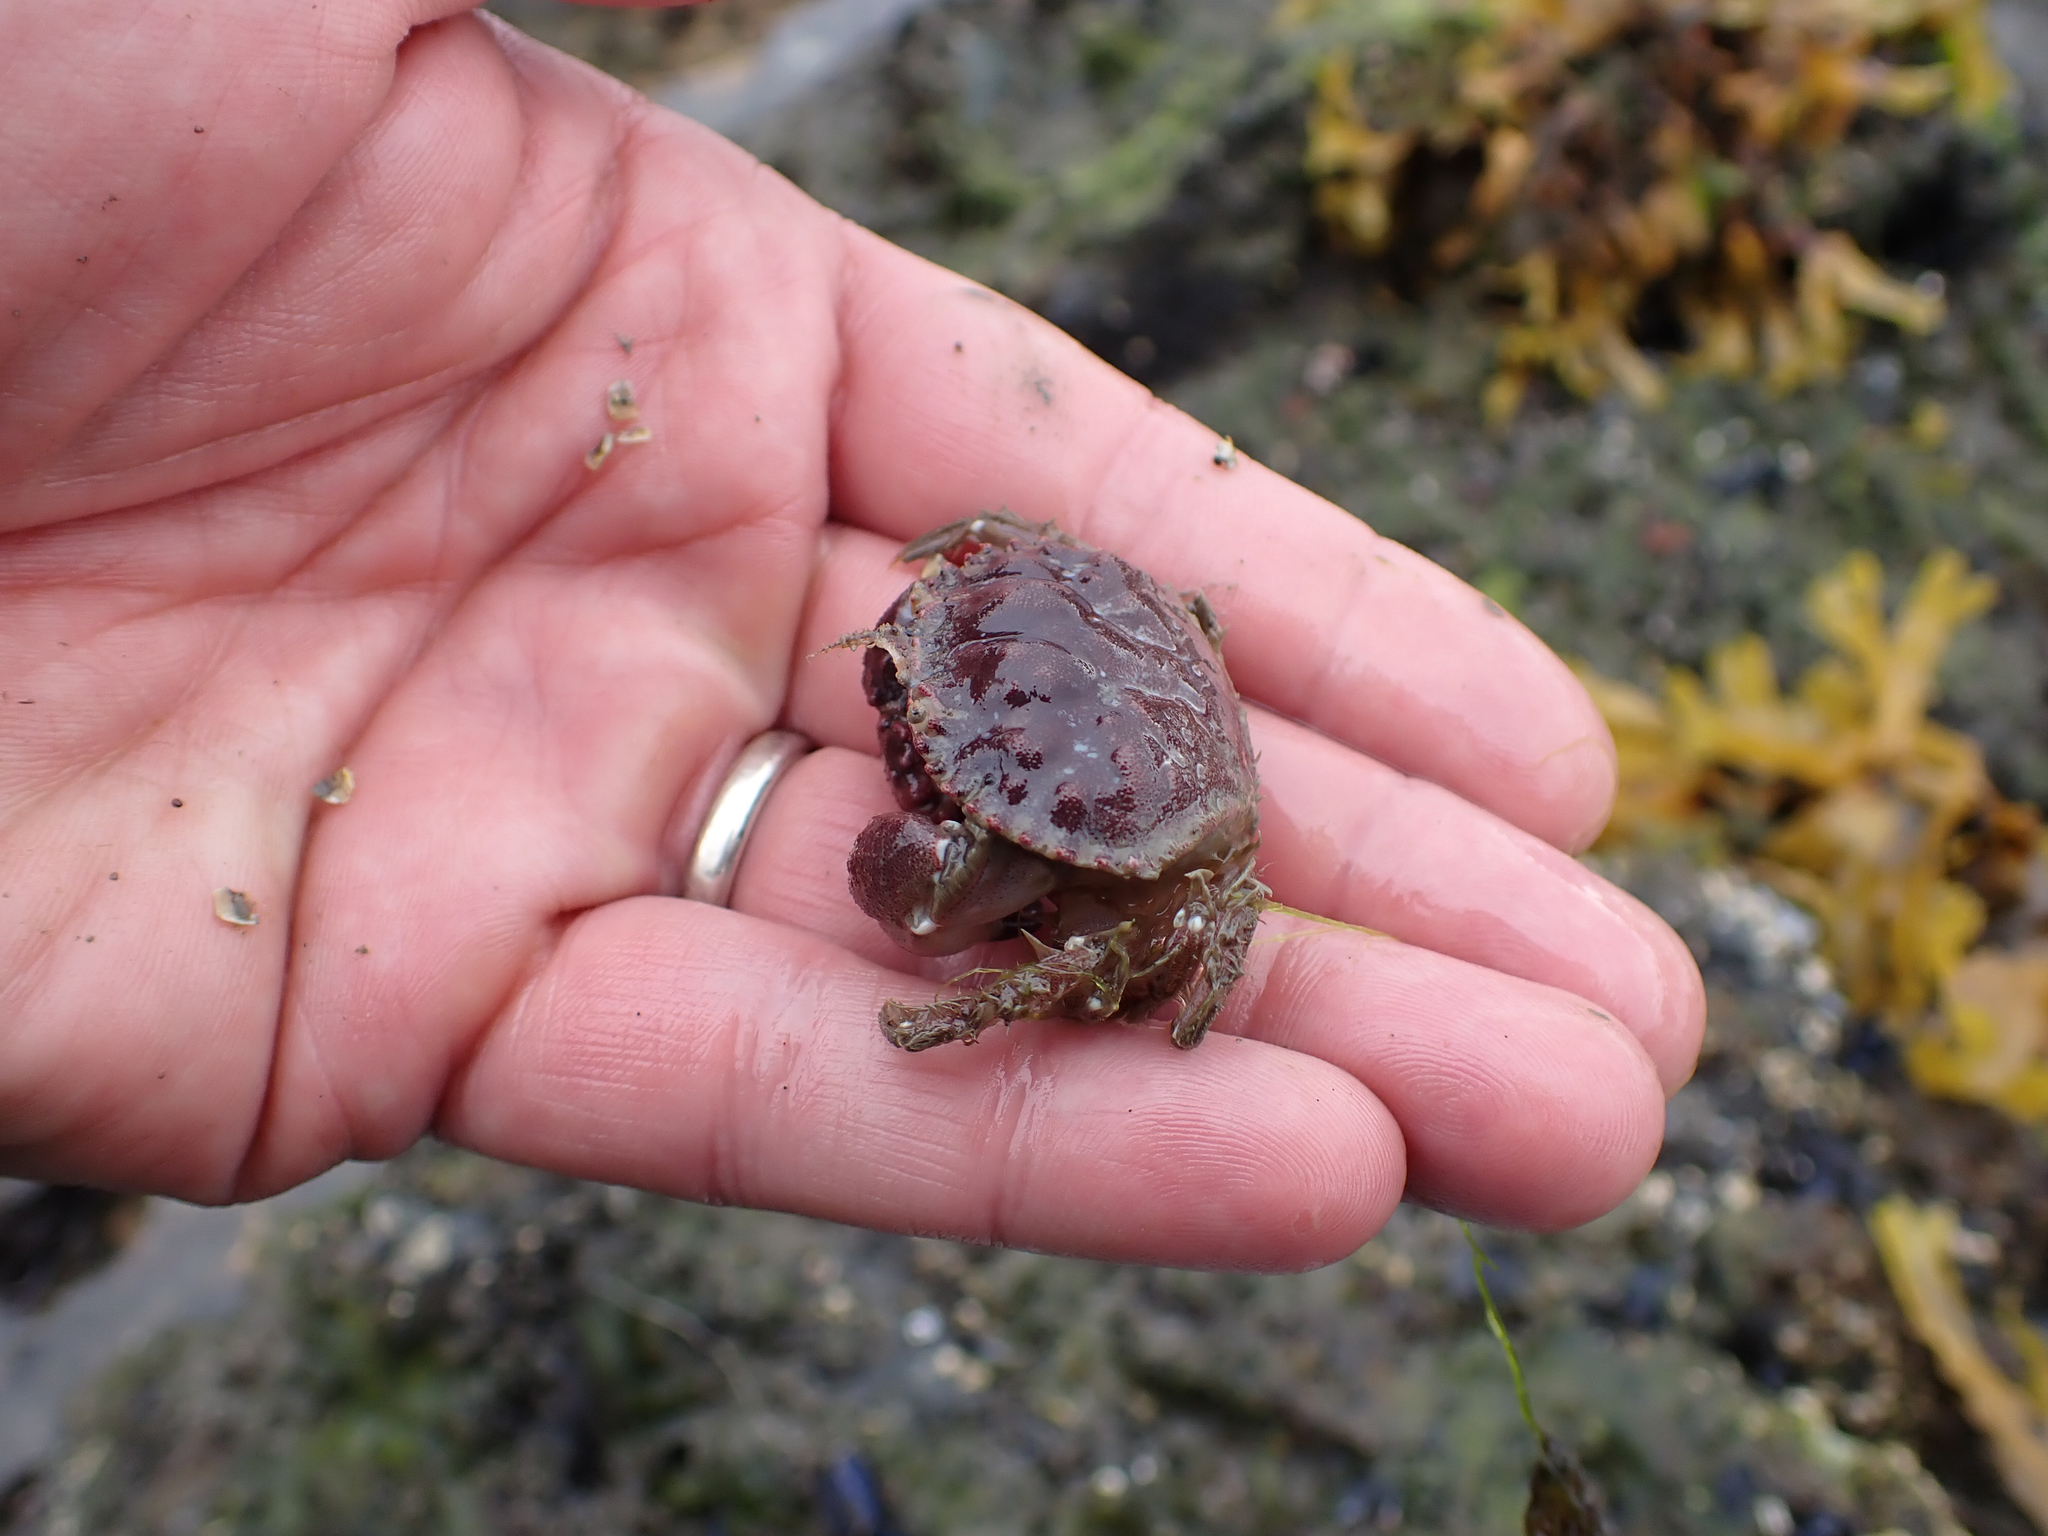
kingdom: Animalia
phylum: Arthropoda
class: Malacostraca
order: Decapoda
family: Cancridae
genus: Glebocarcinus
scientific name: Glebocarcinus oregonensis
